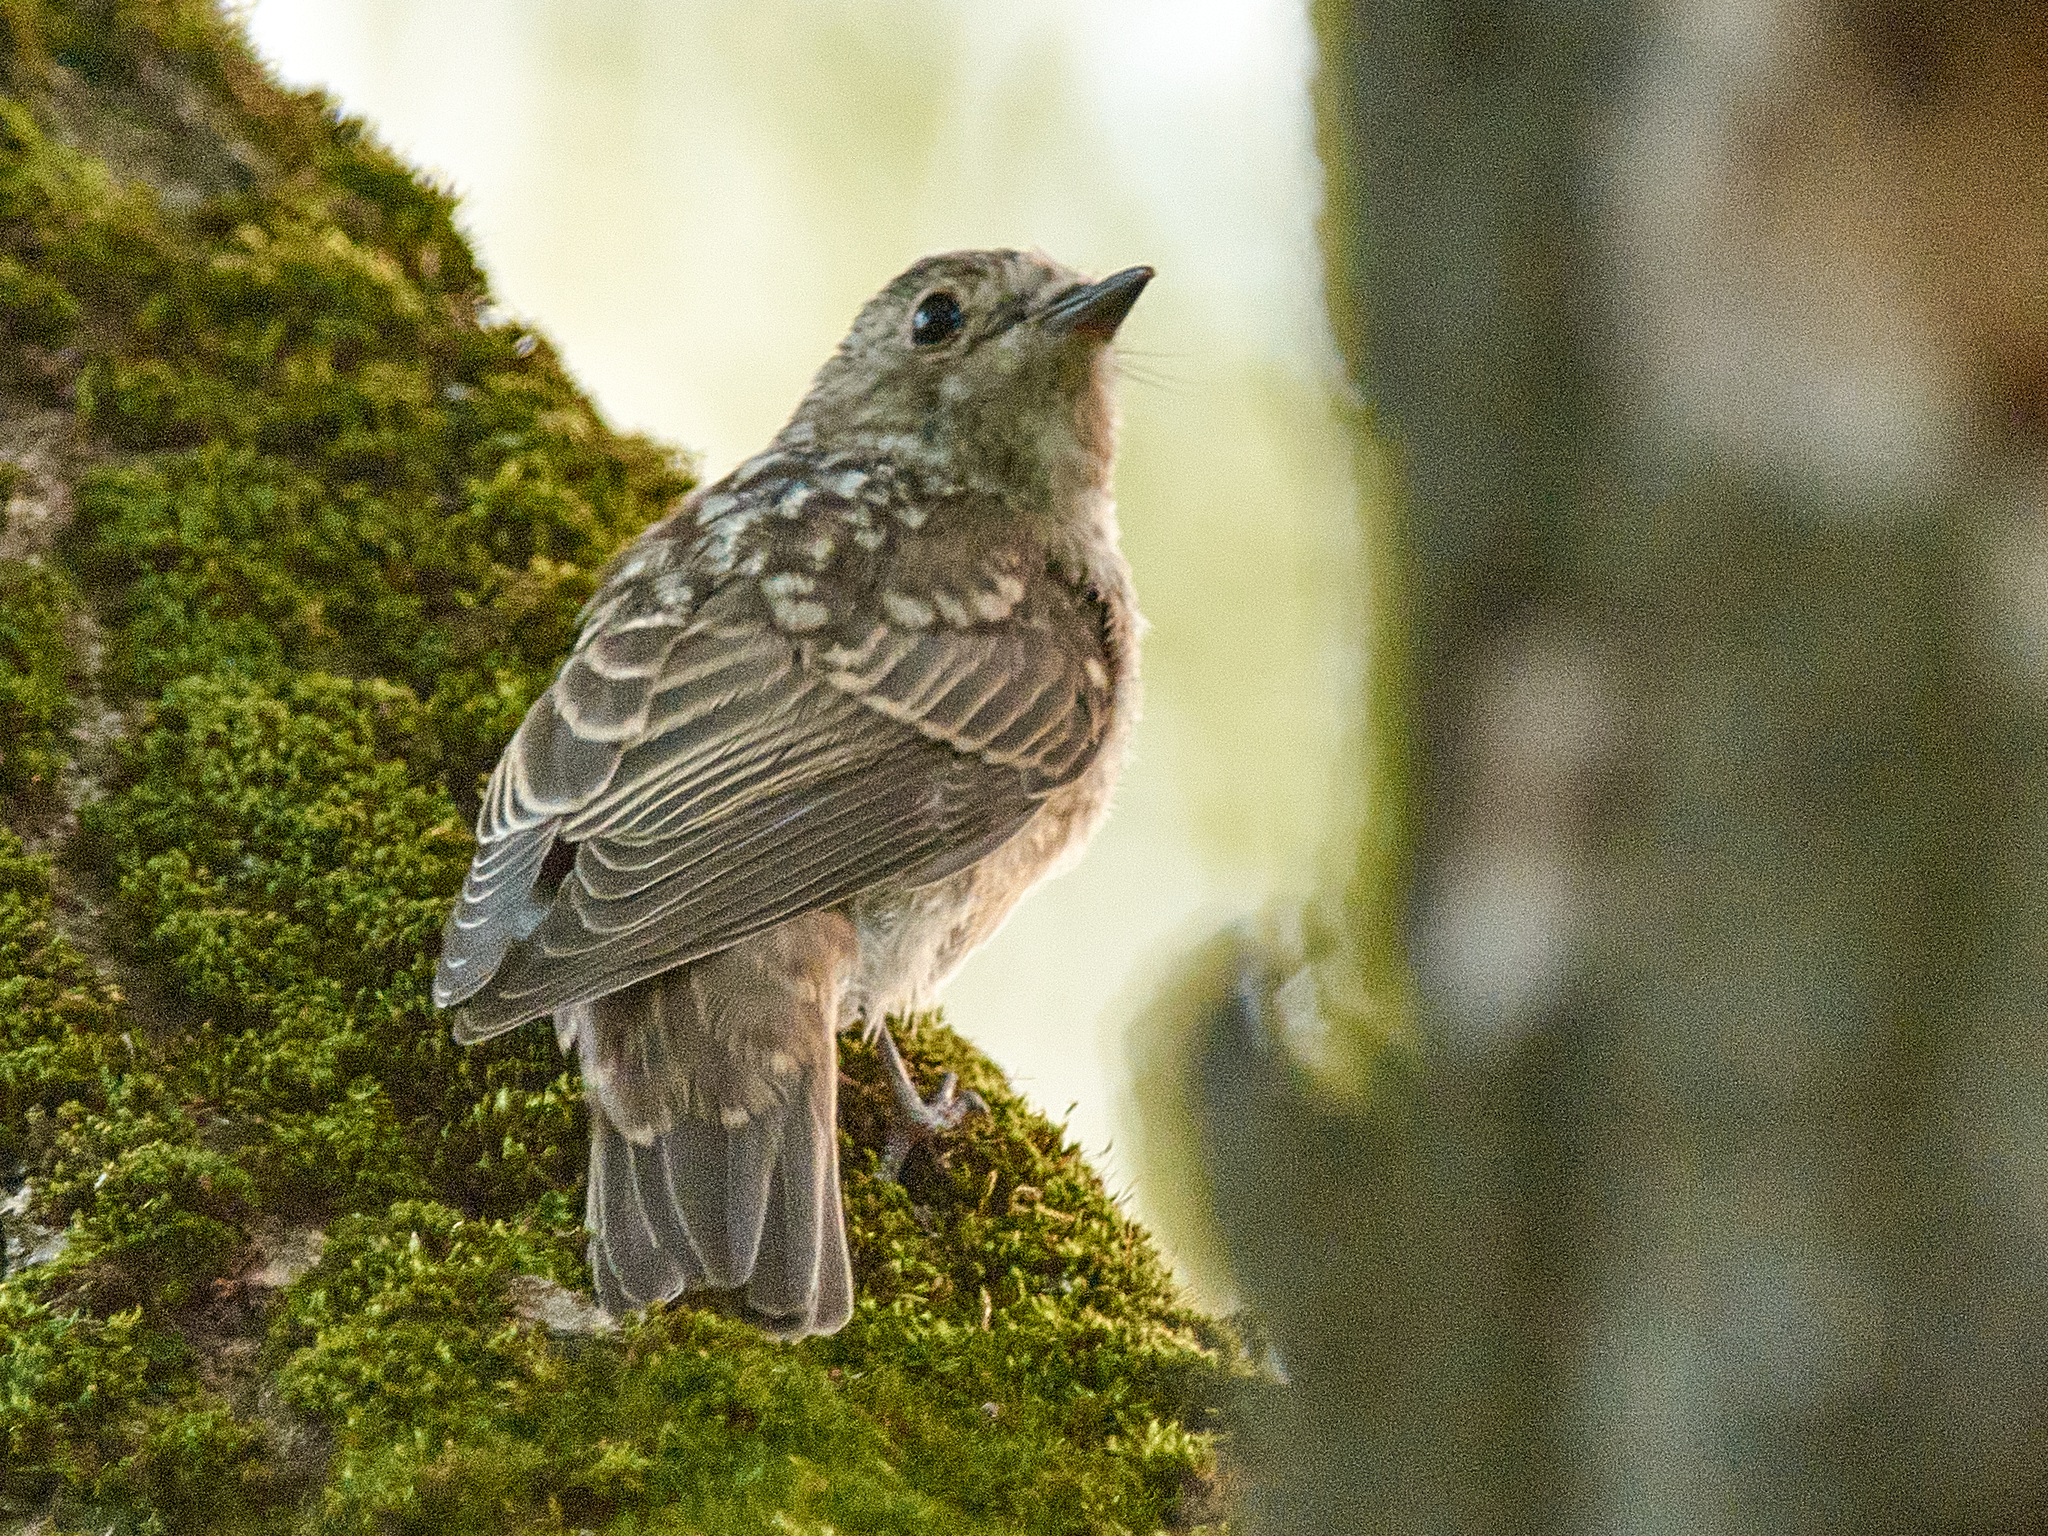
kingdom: Animalia
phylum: Chordata
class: Aves
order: Passeriformes
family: Muscicapidae
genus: Muscicapa
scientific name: Muscicapa striata
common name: Spotted flycatcher
